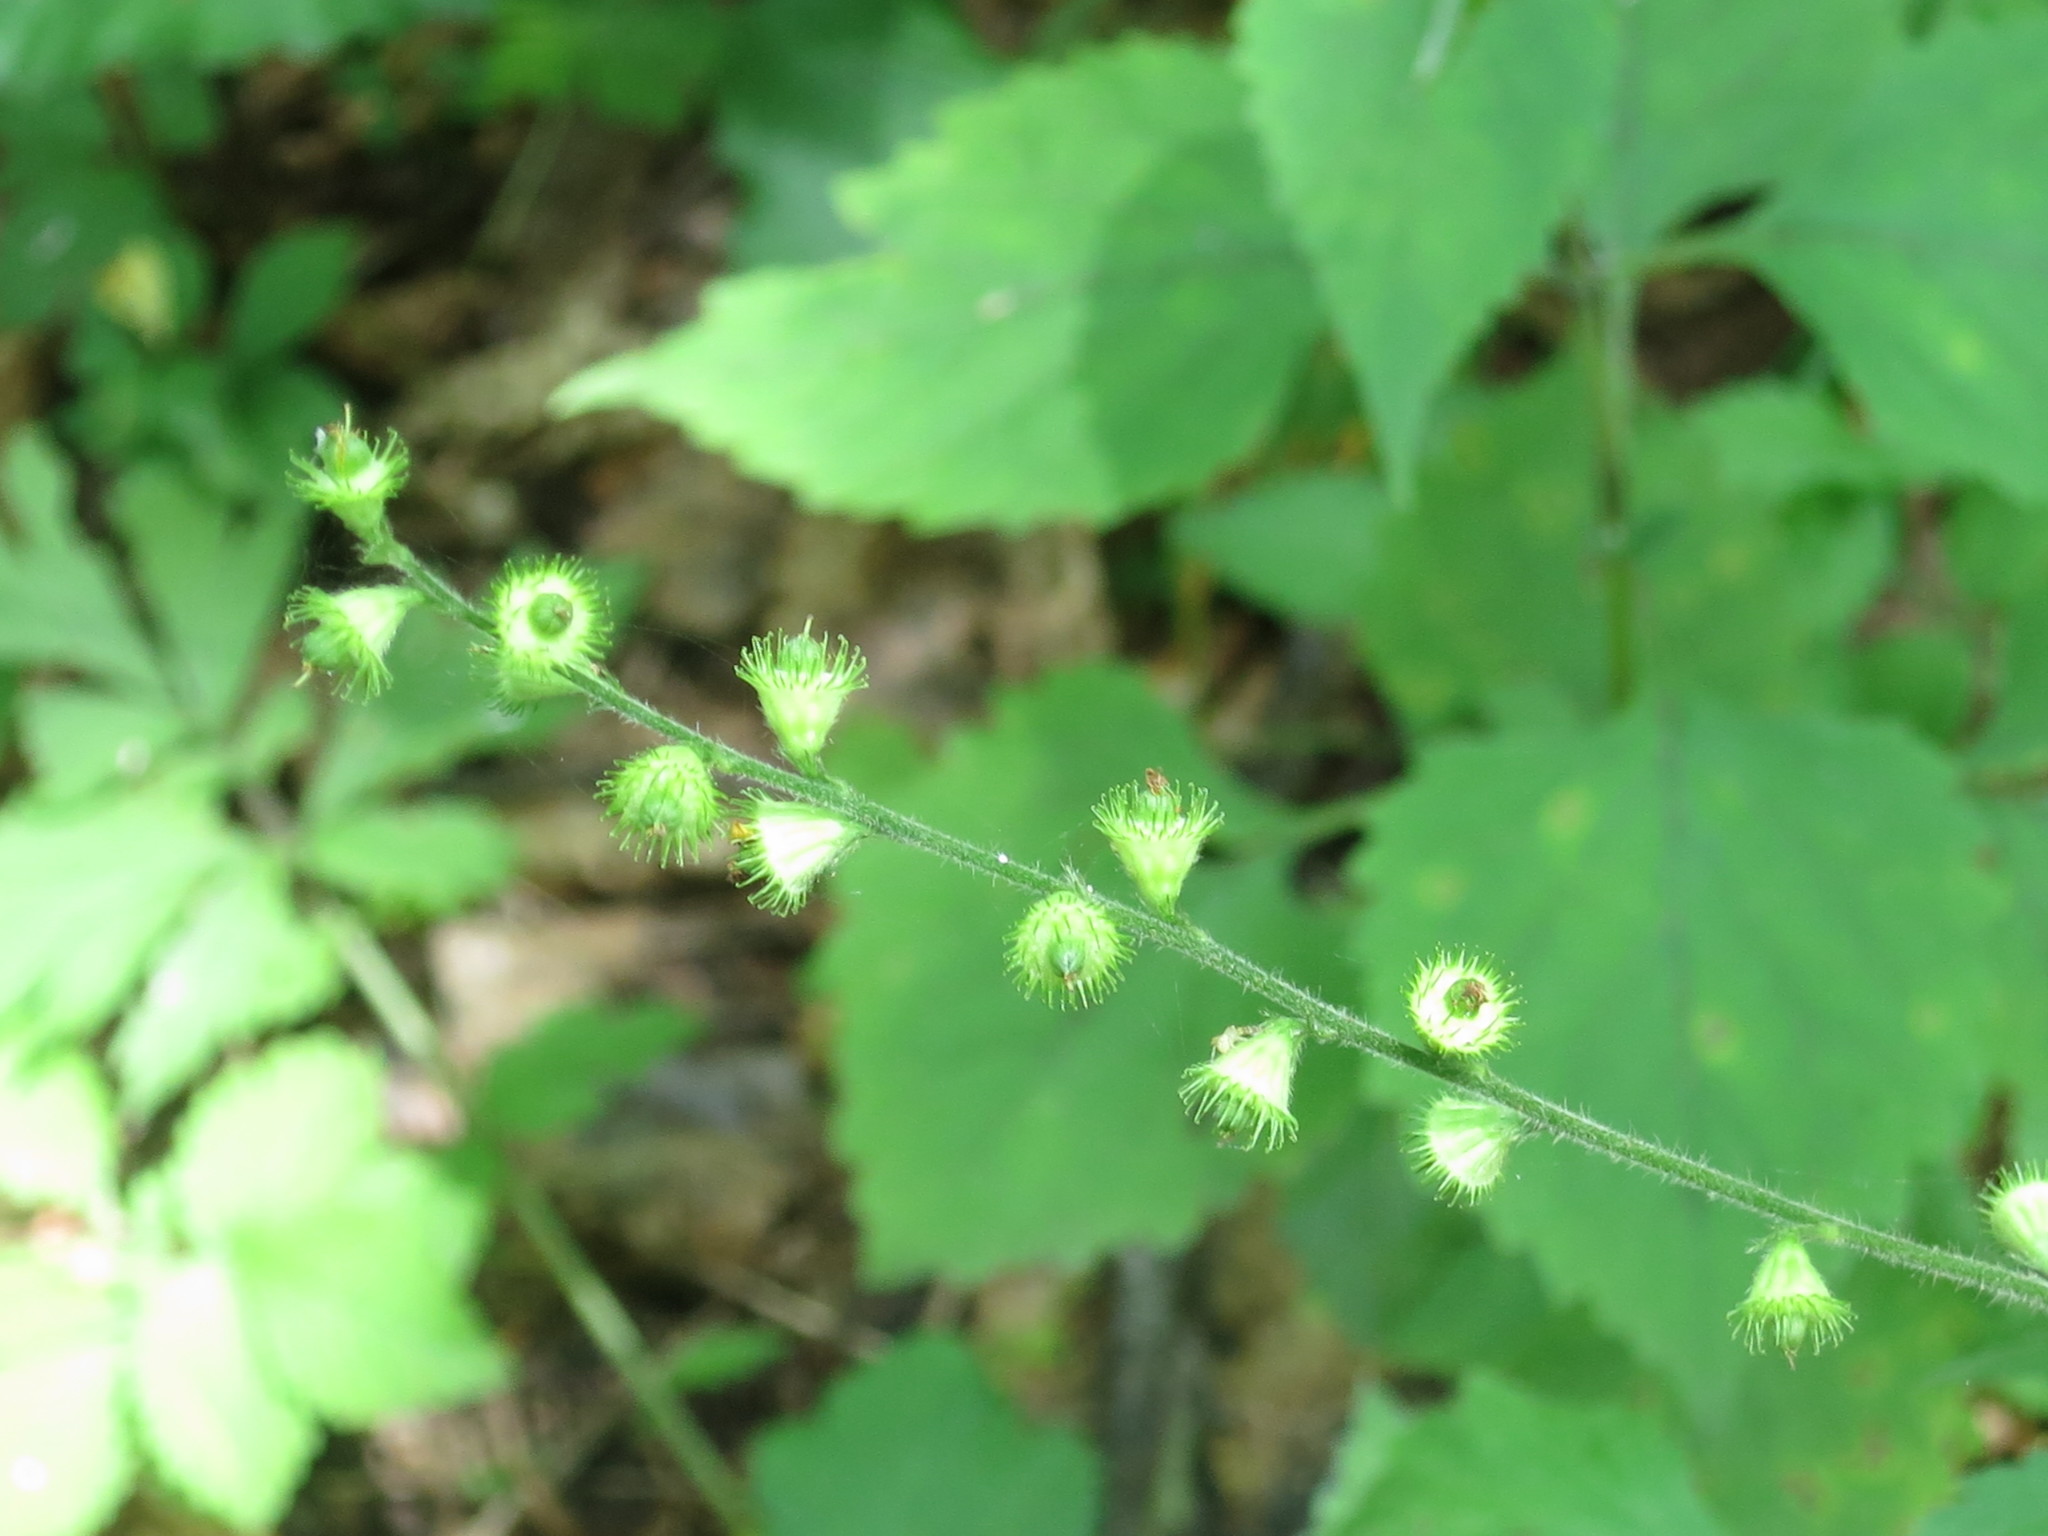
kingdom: Plantae
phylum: Tracheophyta
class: Magnoliopsida
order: Rosales
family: Rosaceae
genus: Agrimonia
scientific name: Agrimonia coreana
